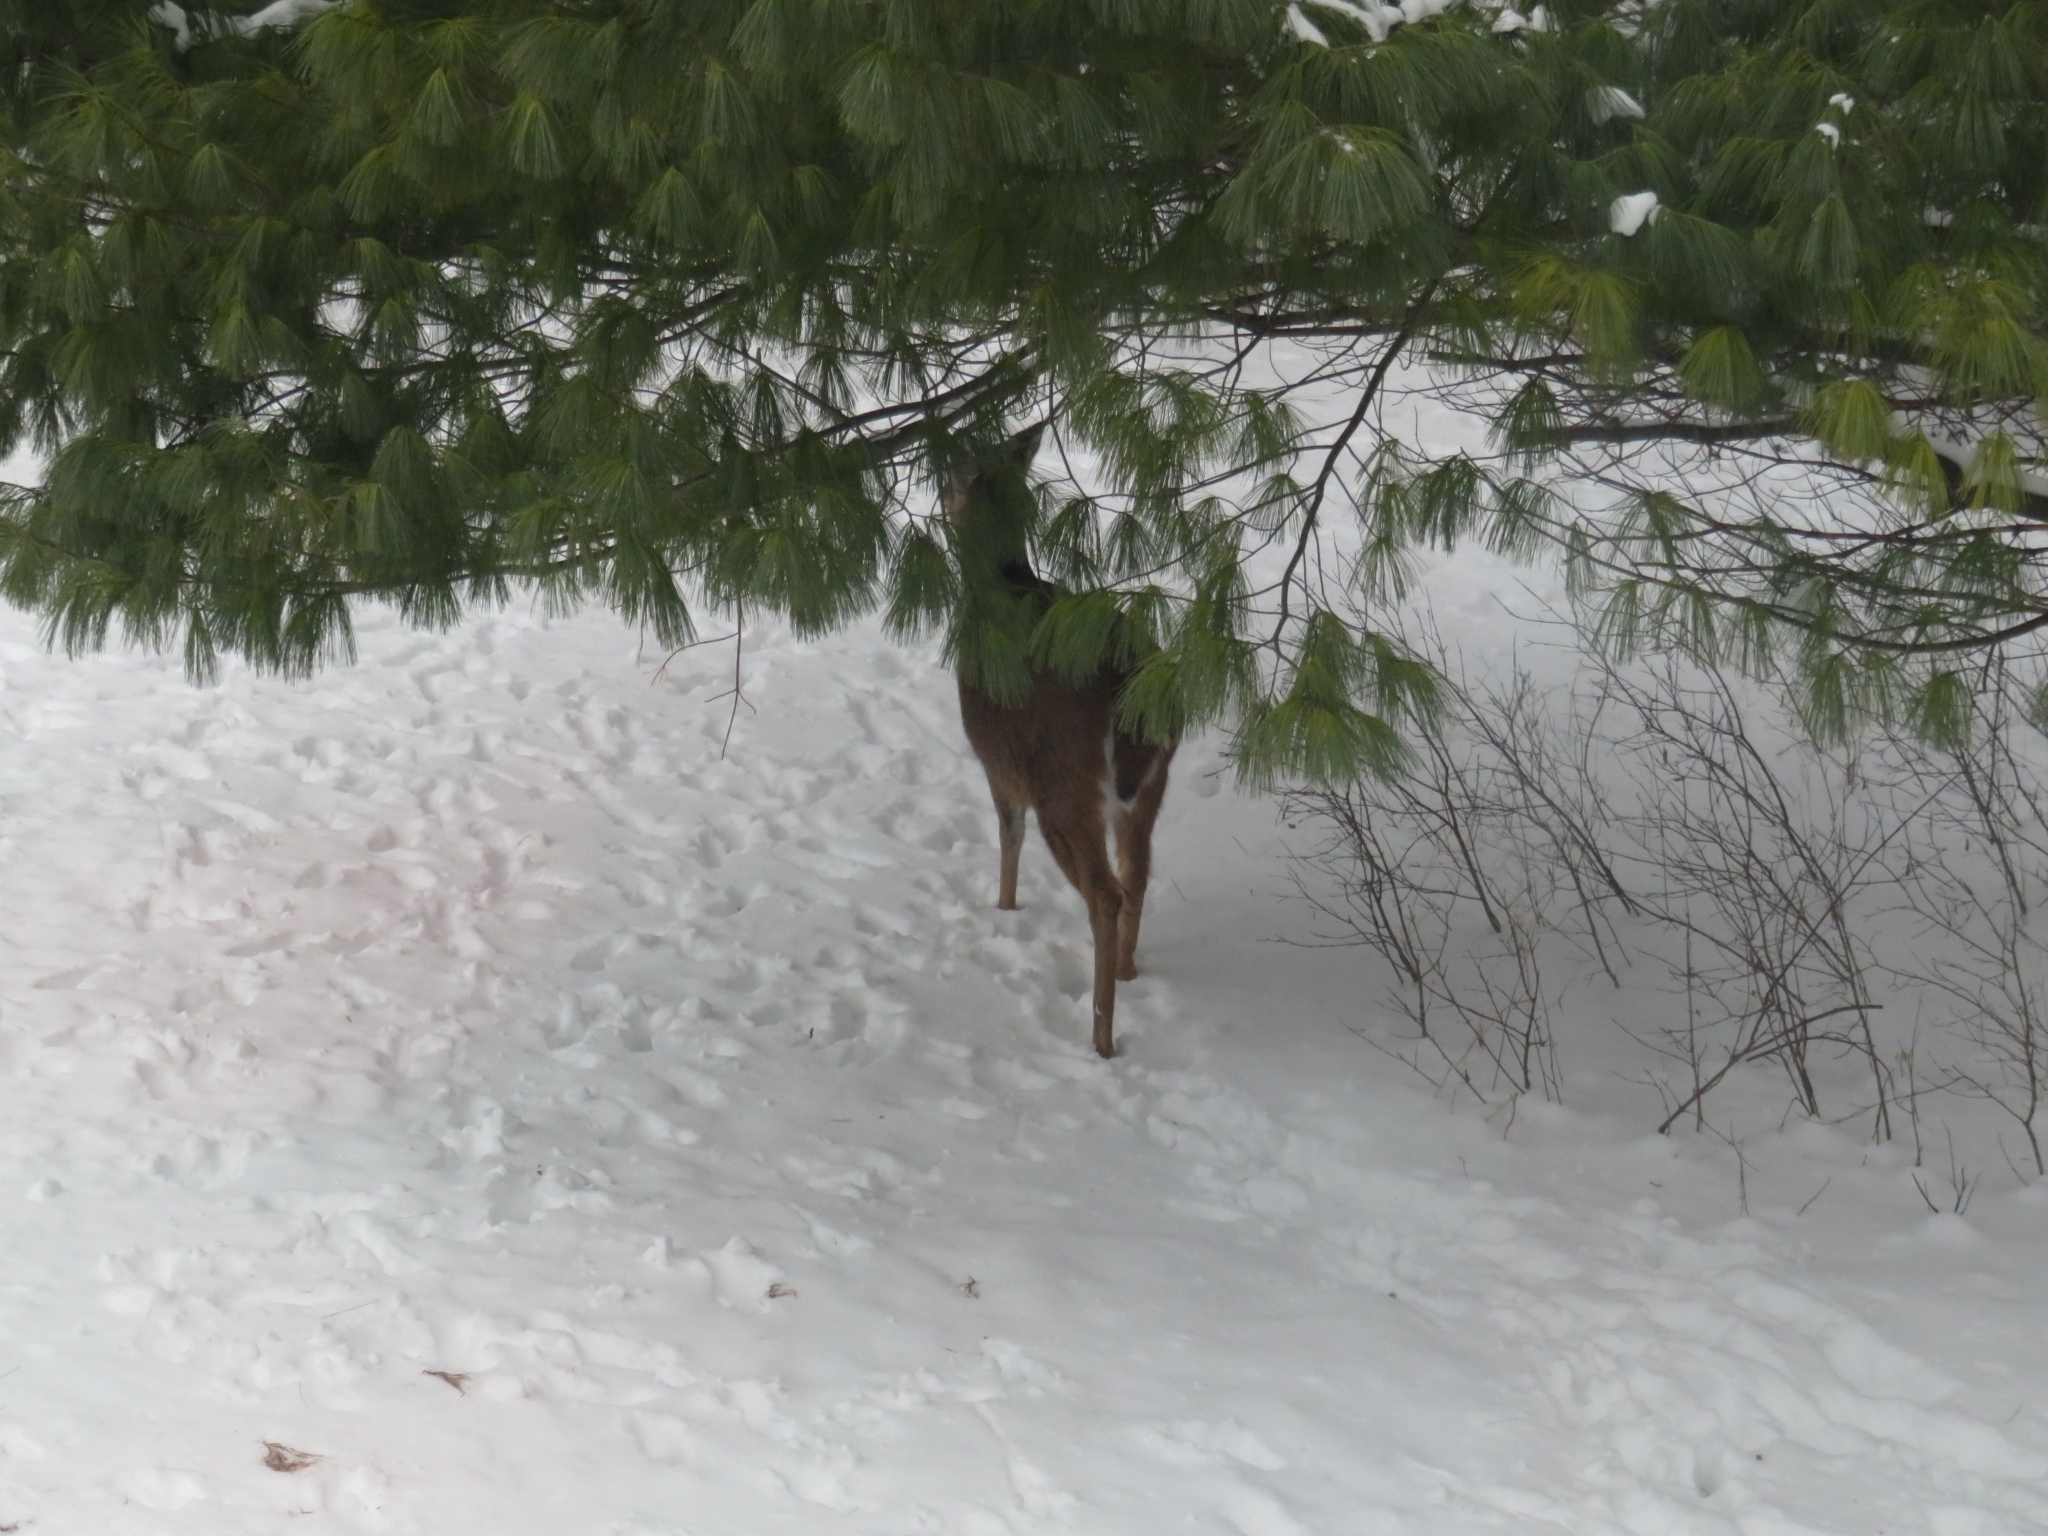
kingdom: Animalia
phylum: Chordata
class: Mammalia
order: Artiodactyla
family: Cervidae
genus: Odocoileus
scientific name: Odocoileus virginianus
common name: White-tailed deer
